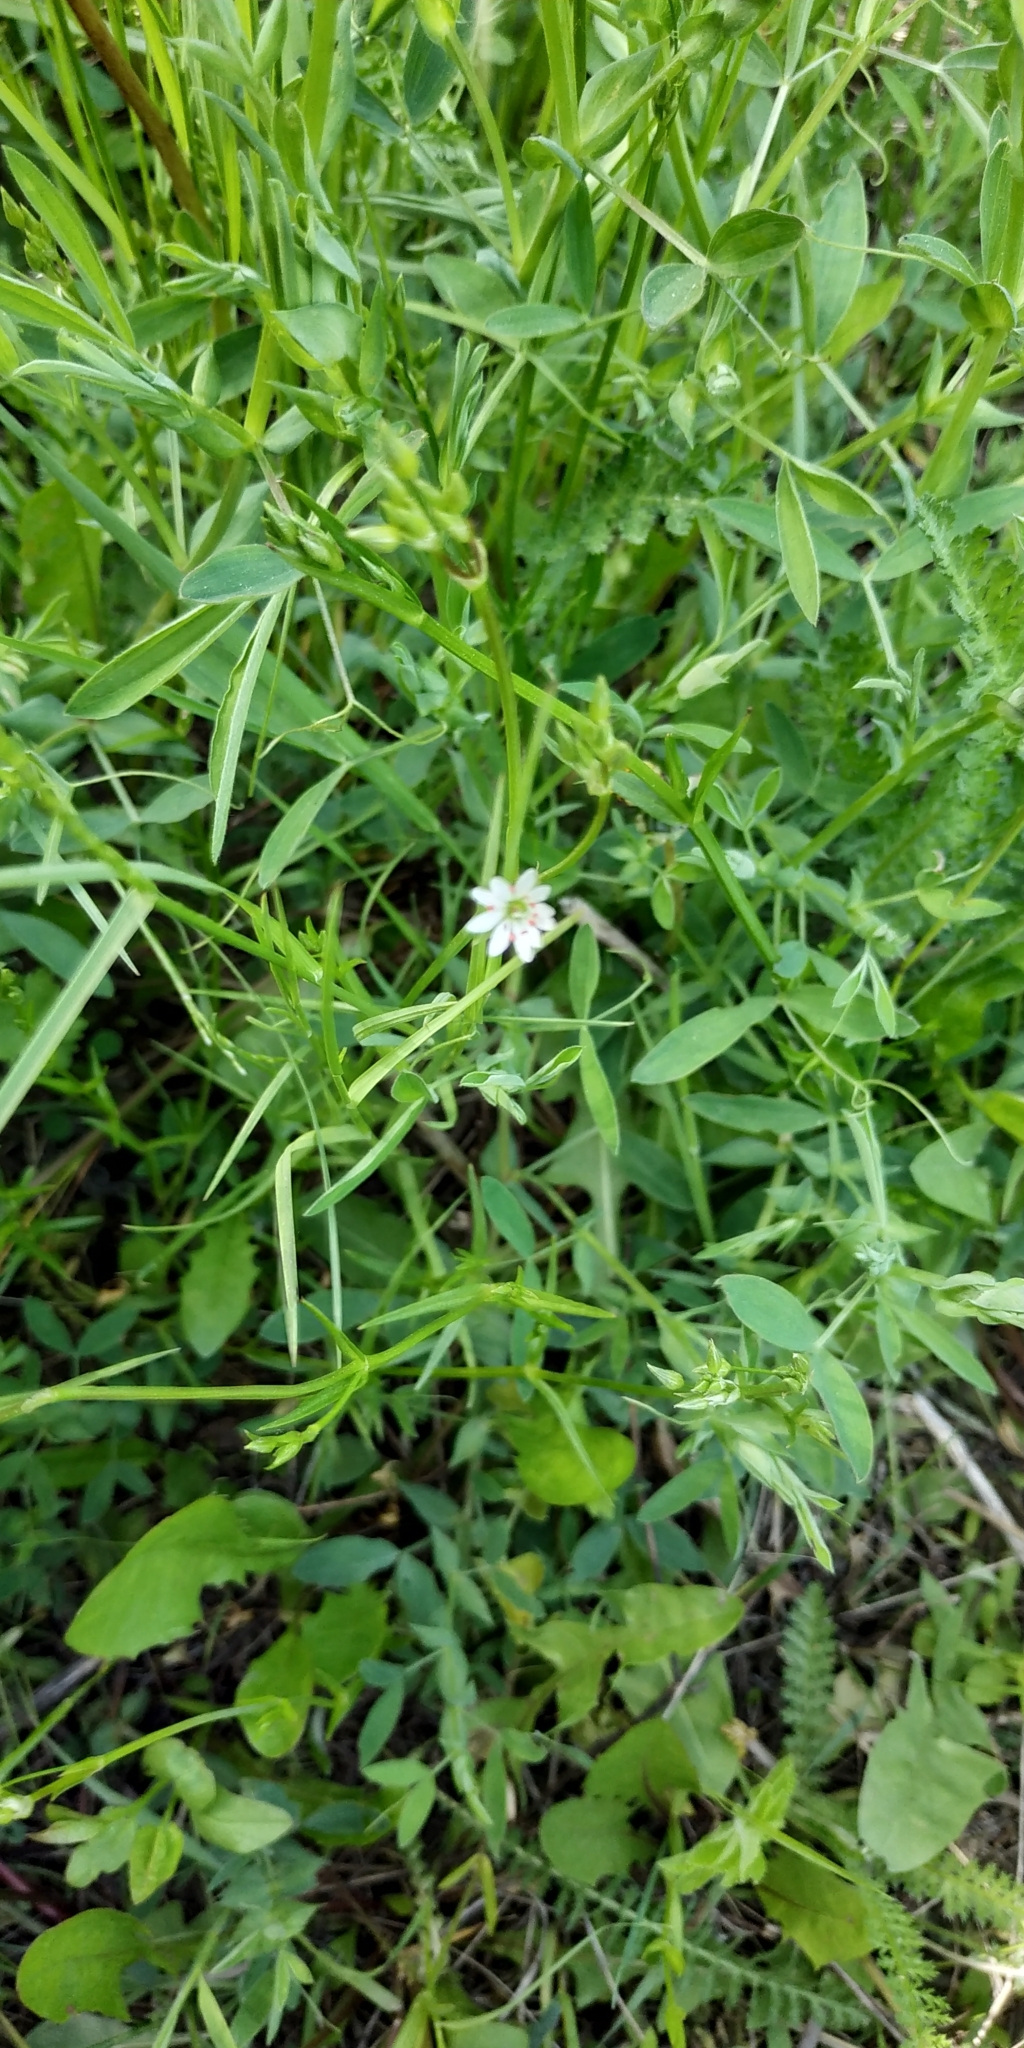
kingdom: Plantae
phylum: Tracheophyta
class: Magnoliopsida
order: Caryophyllales
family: Caryophyllaceae
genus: Stellaria
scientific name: Stellaria graminea
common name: Grass-like starwort
